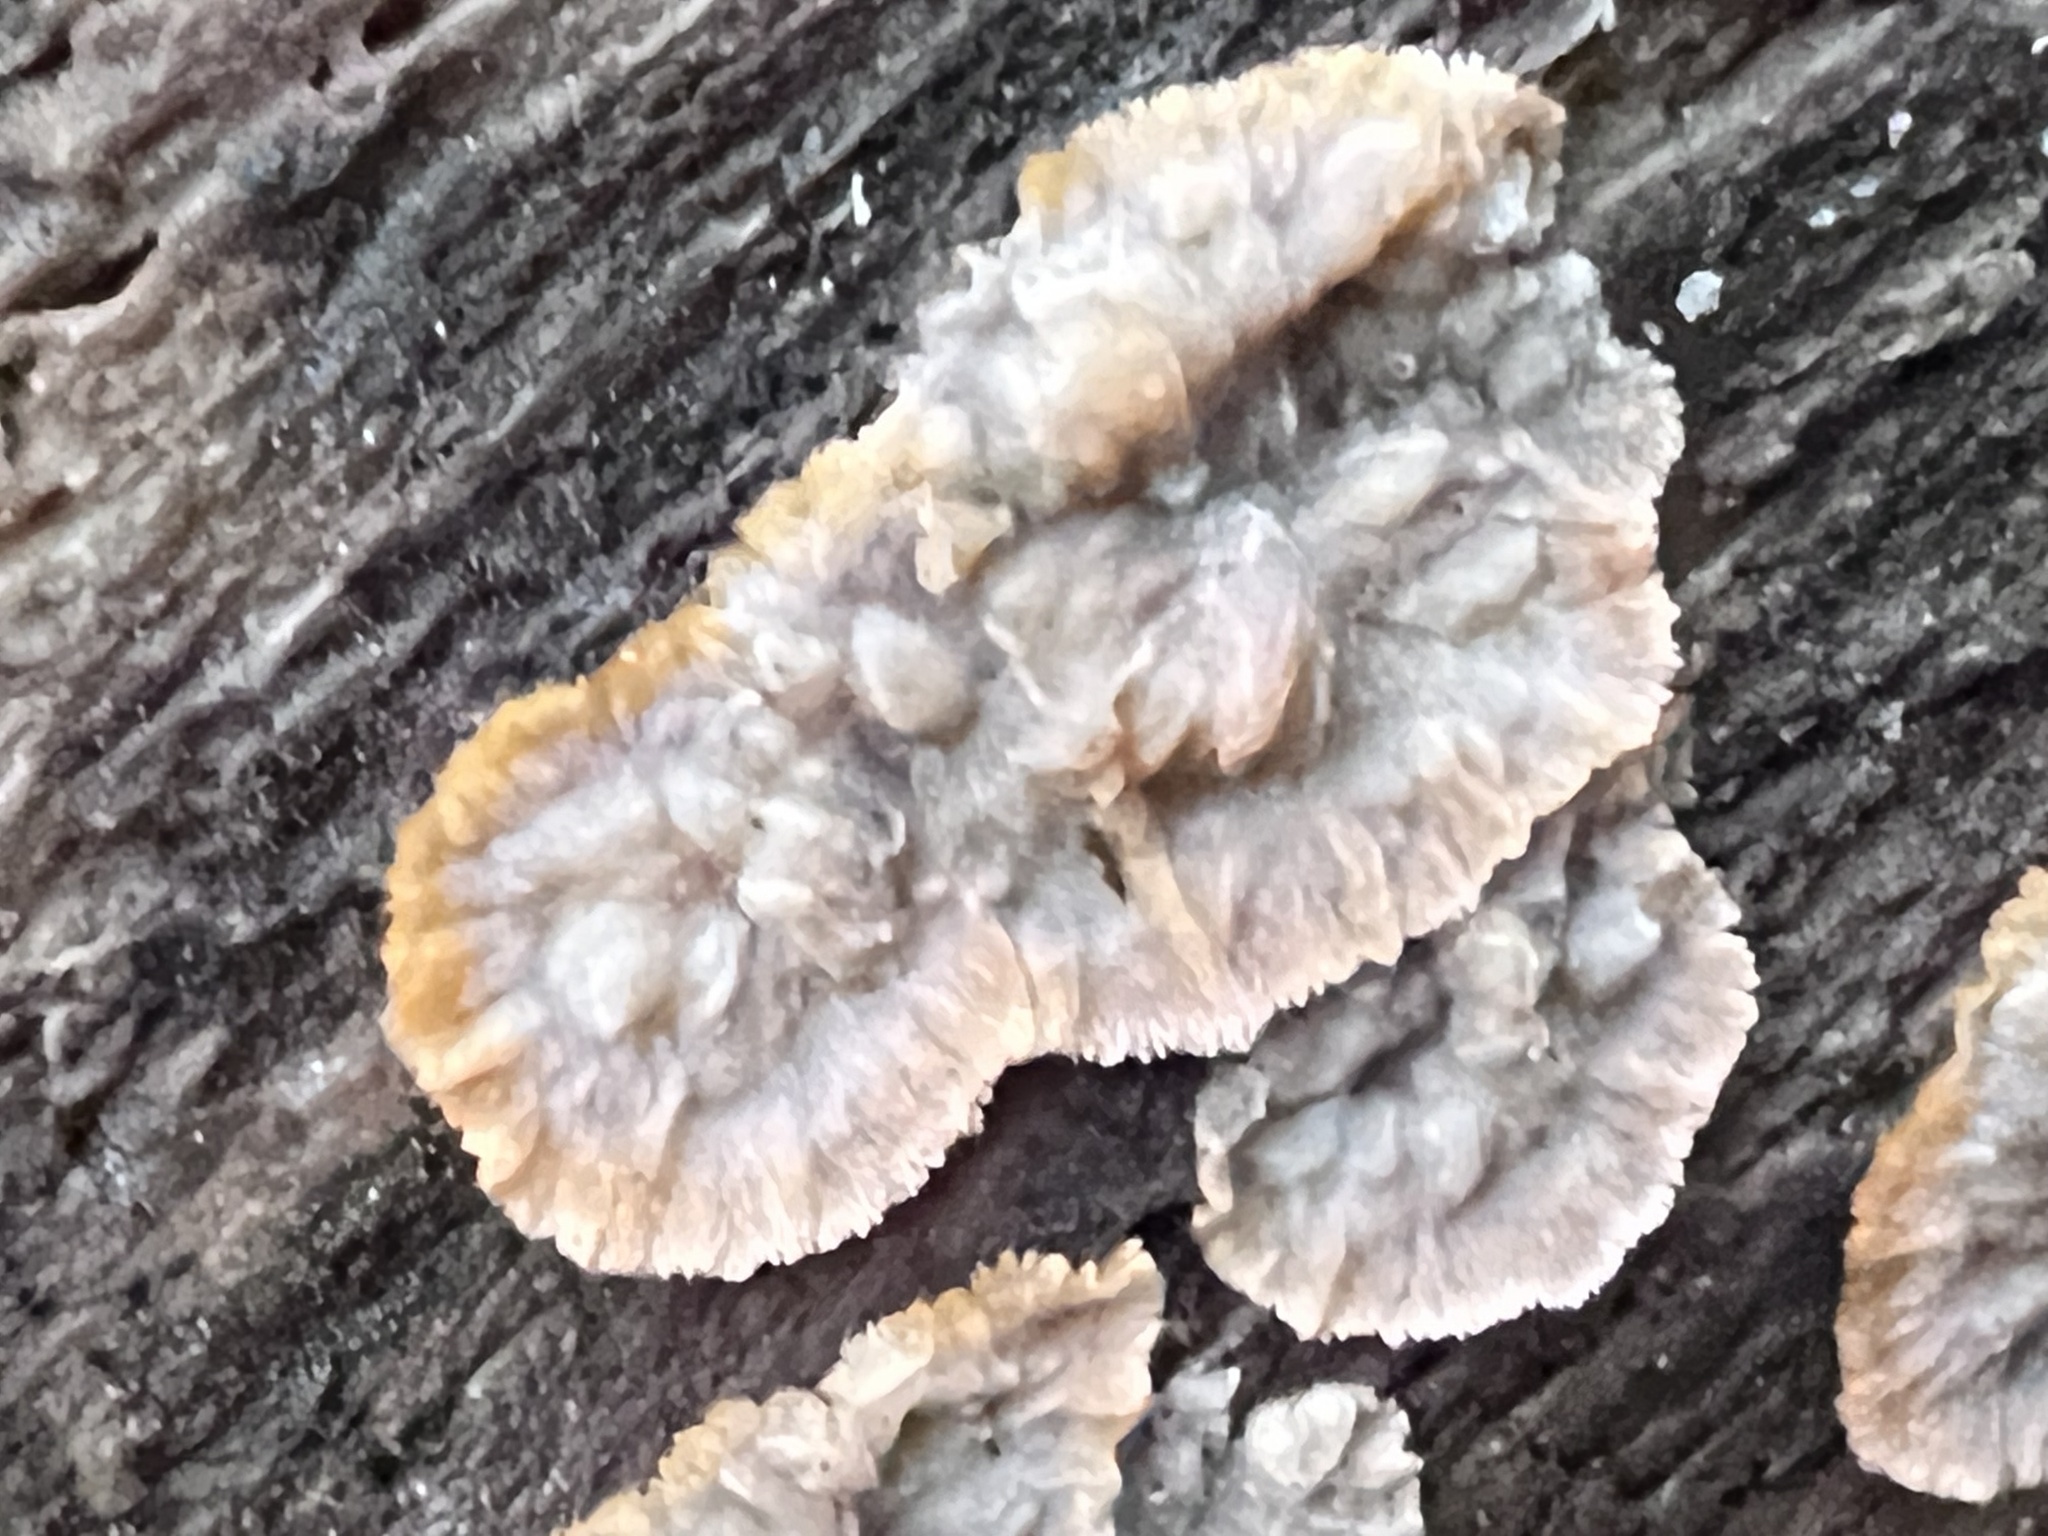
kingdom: Fungi
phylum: Basidiomycota
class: Agaricomycetes
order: Polyporales
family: Meruliaceae
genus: Phlebia
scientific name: Phlebia radiata
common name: Wrinkled crust
